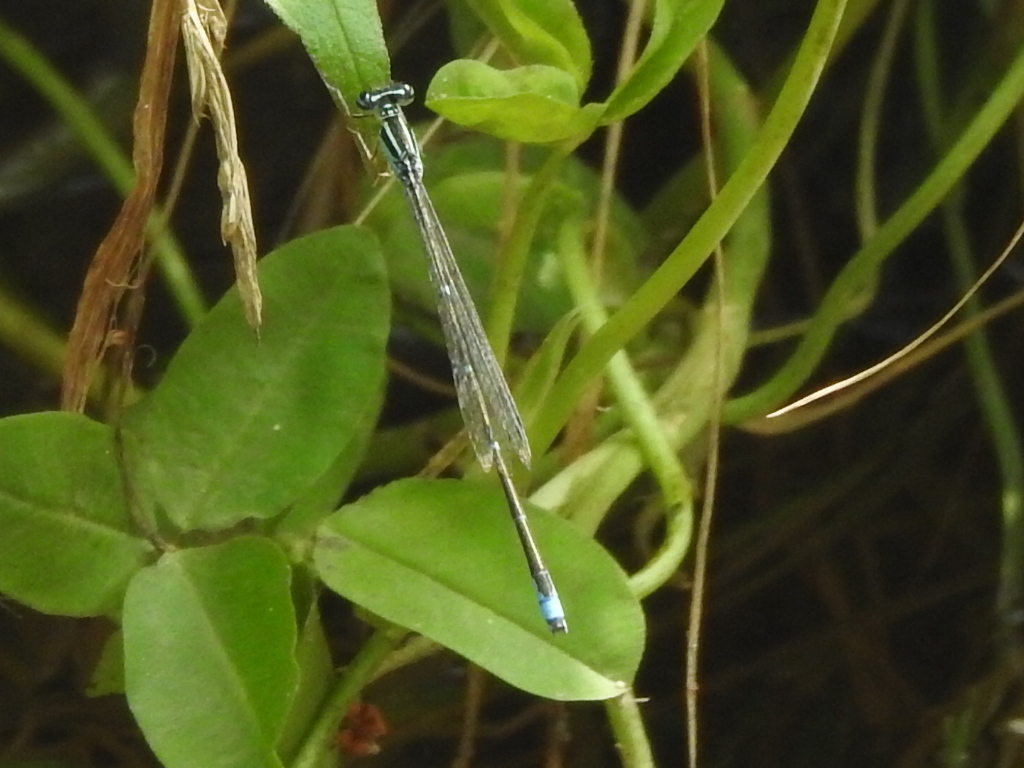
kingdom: Animalia
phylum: Arthropoda
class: Insecta
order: Odonata
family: Coenagrionidae
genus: Enallagma
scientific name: Enallagma exsulans
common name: Stream bluet
